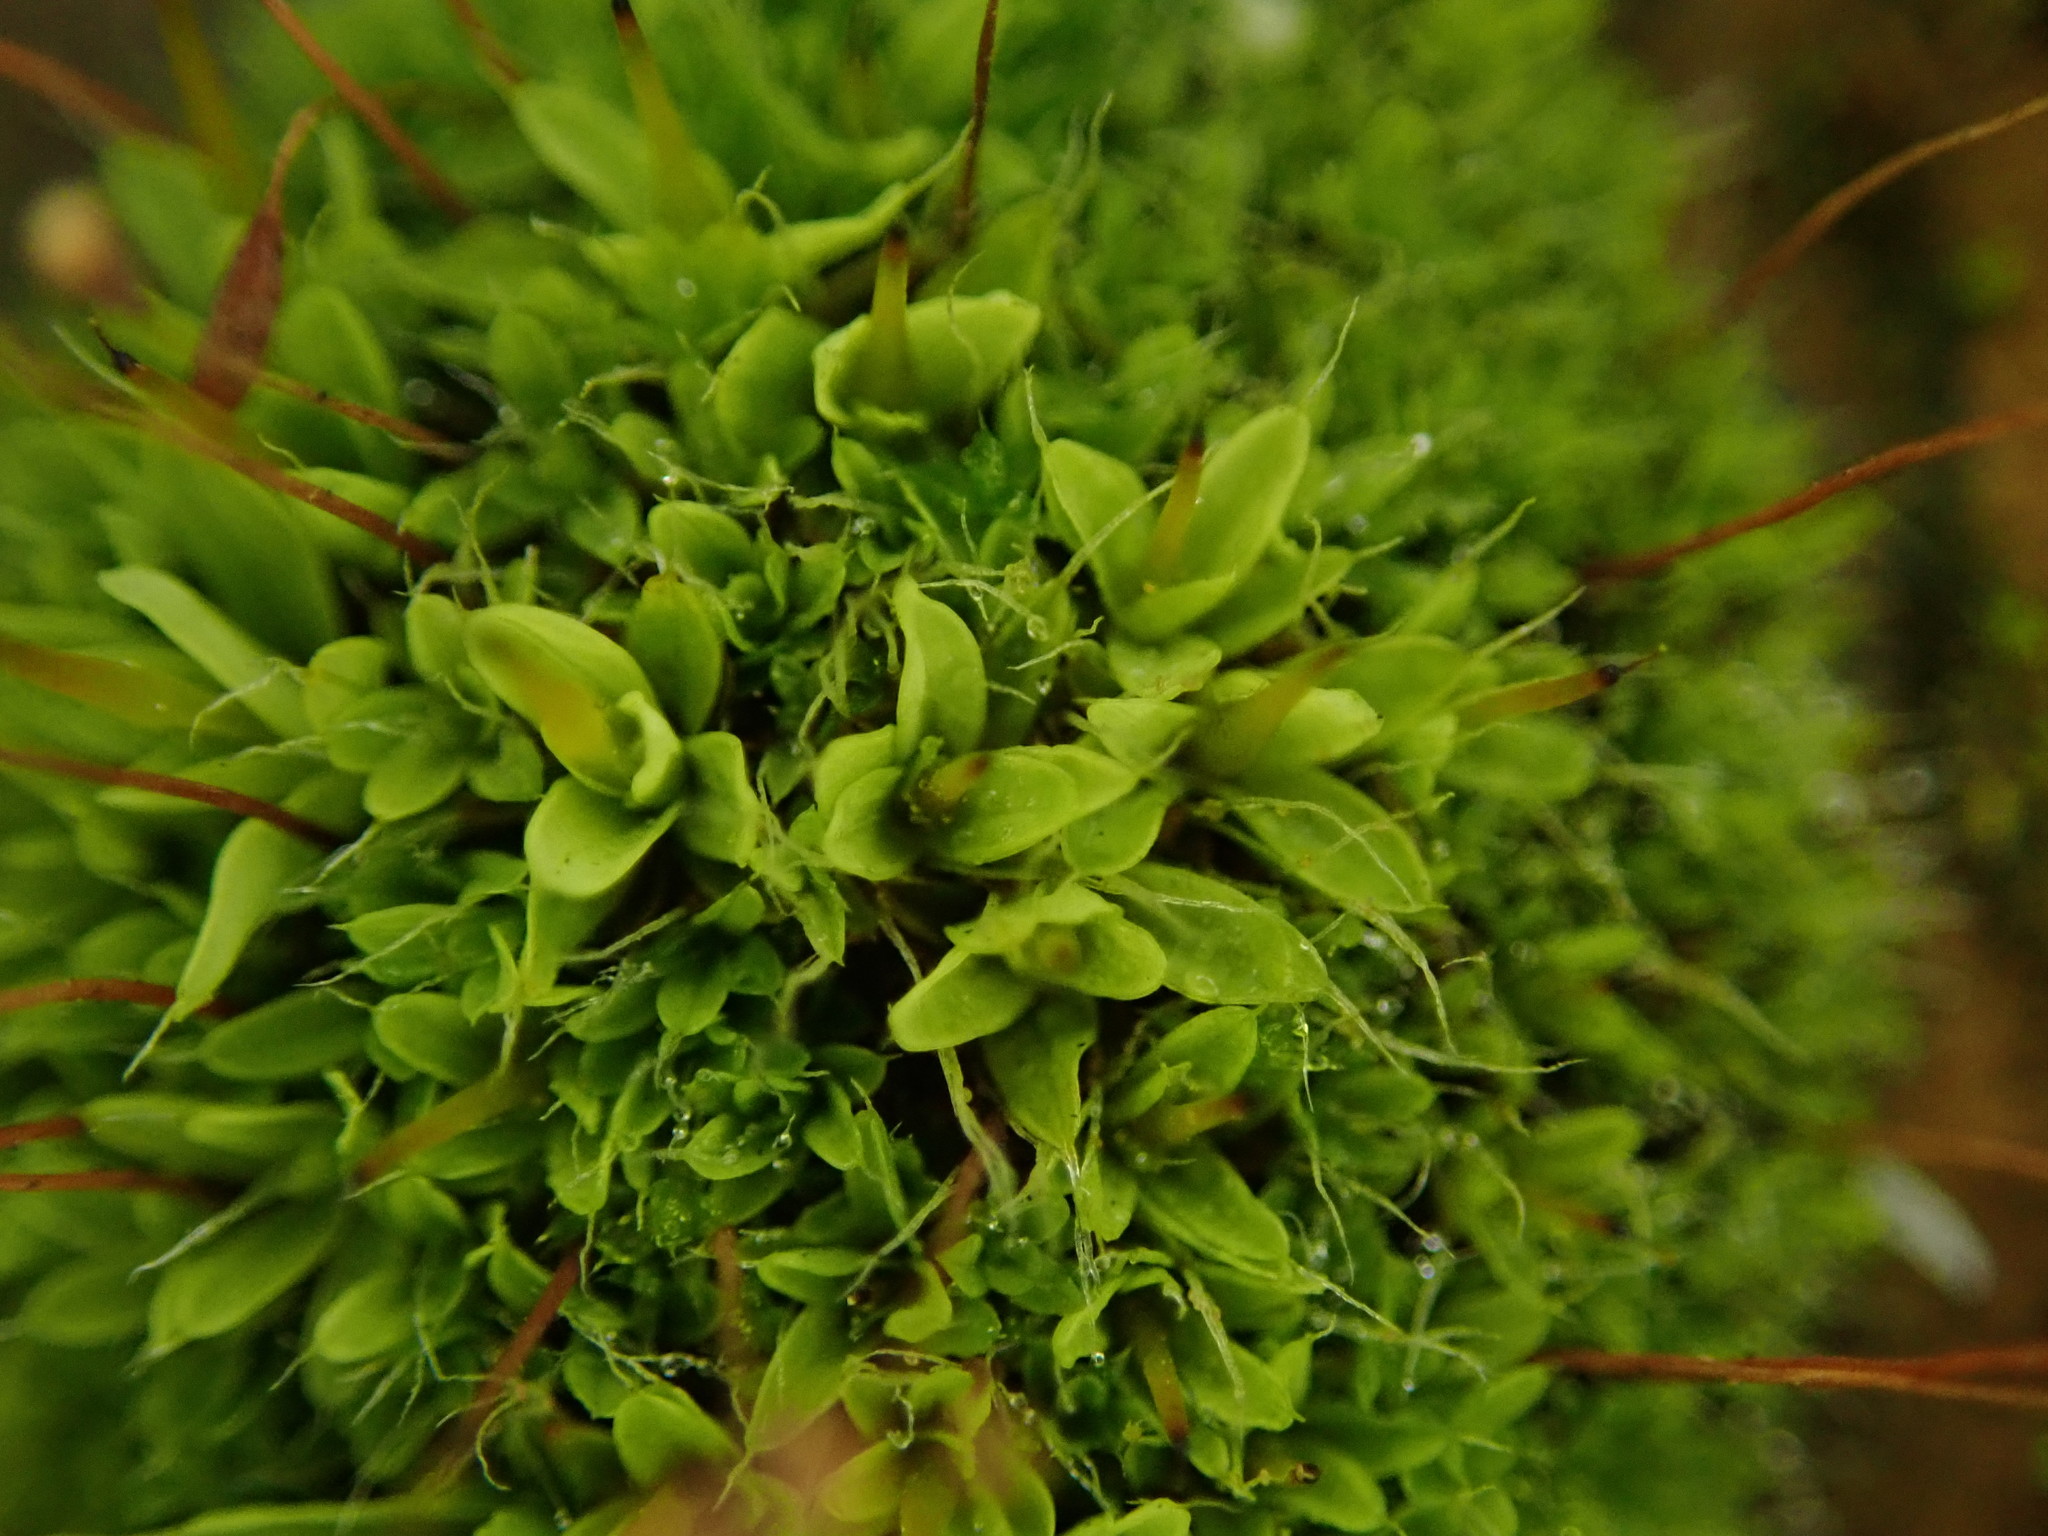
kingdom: Plantae
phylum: Bryophyta
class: Bryopsida
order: Pottiales
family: Pottiaceae
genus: Tortula
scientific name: Tortula muralis
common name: Wall screw-moss
